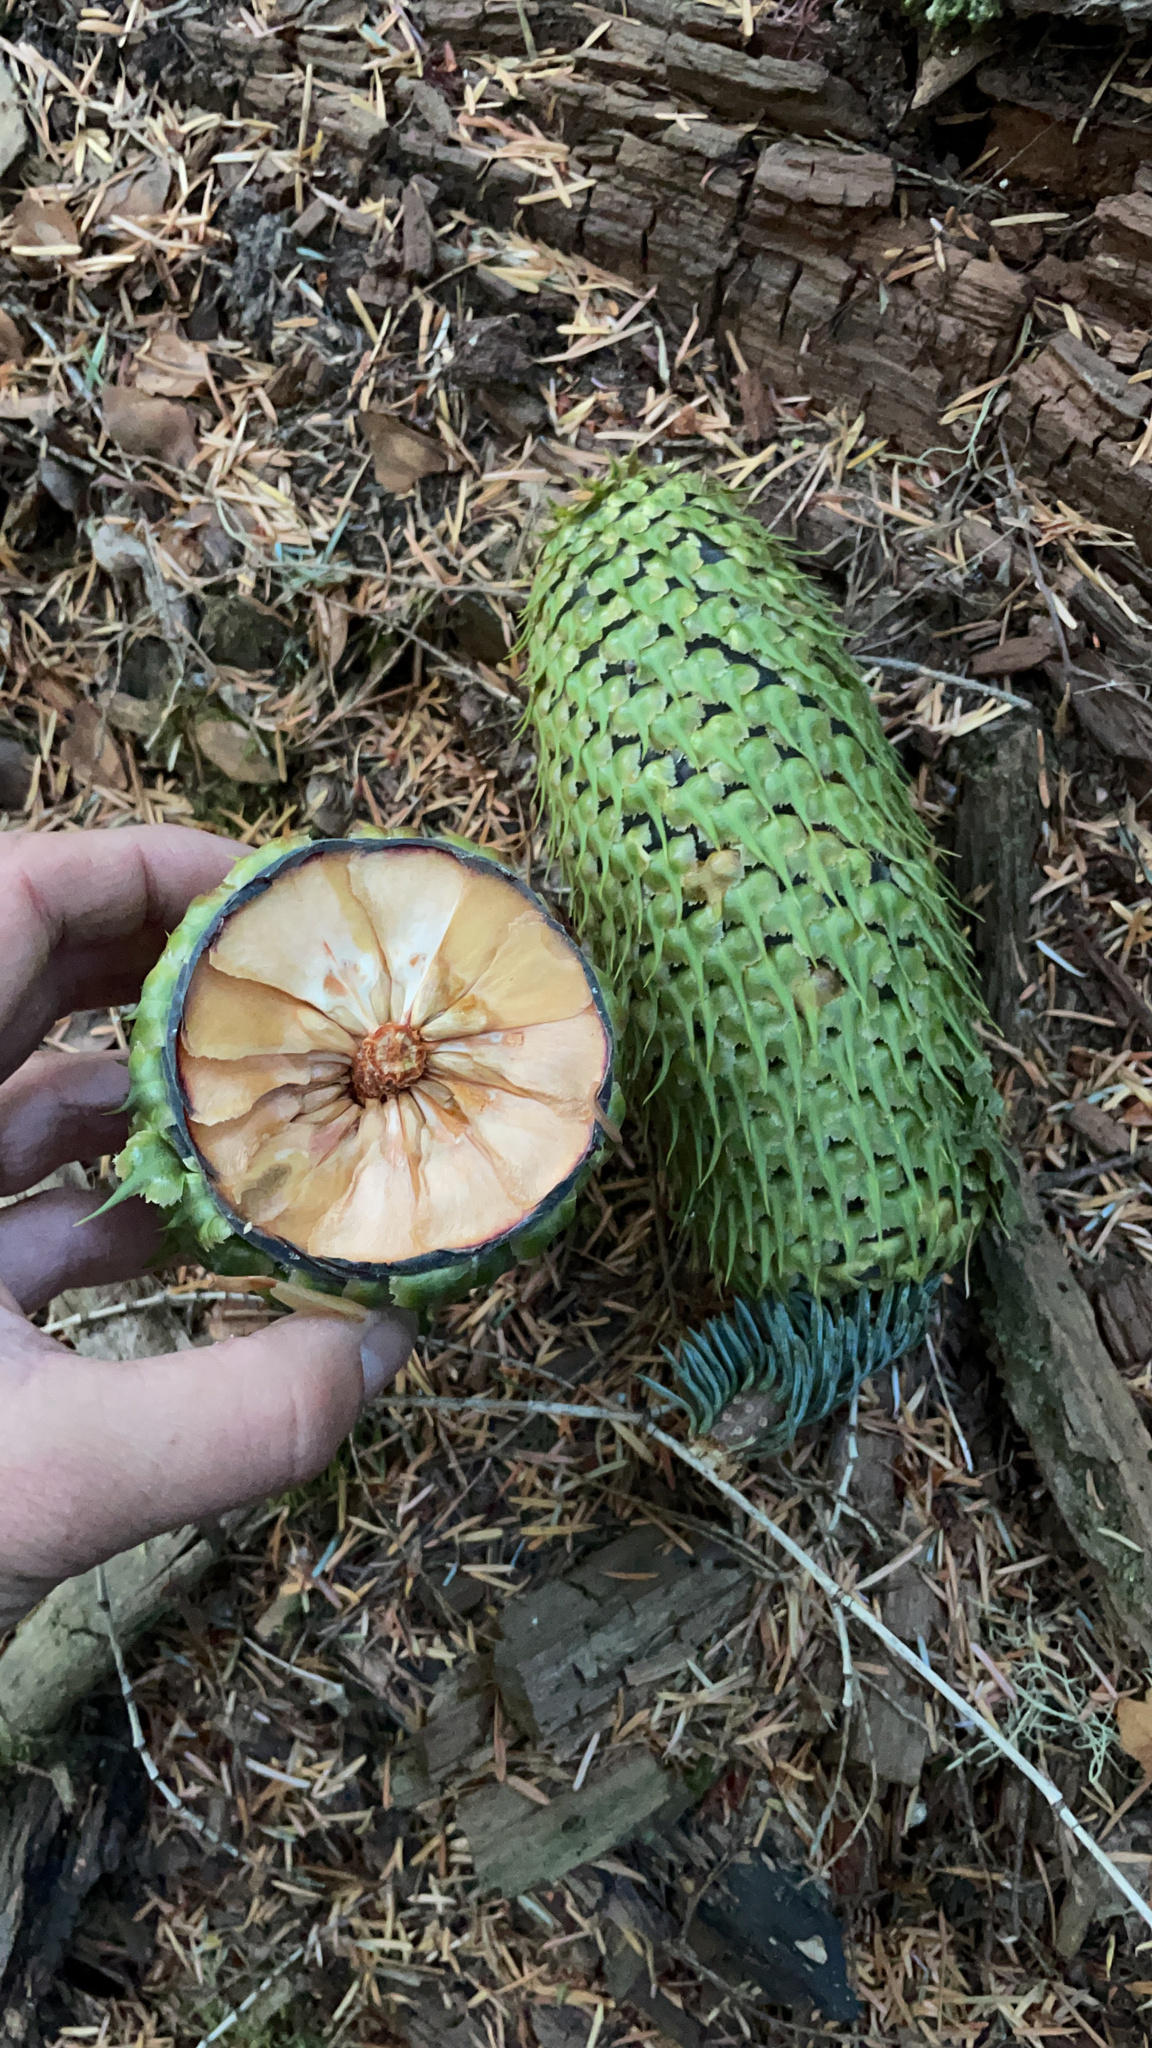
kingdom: Plantae
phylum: Tracheophyta
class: Pinopsida
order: Pinales
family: Pinaceae
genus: Abies
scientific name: Abies procera
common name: Noble fir
